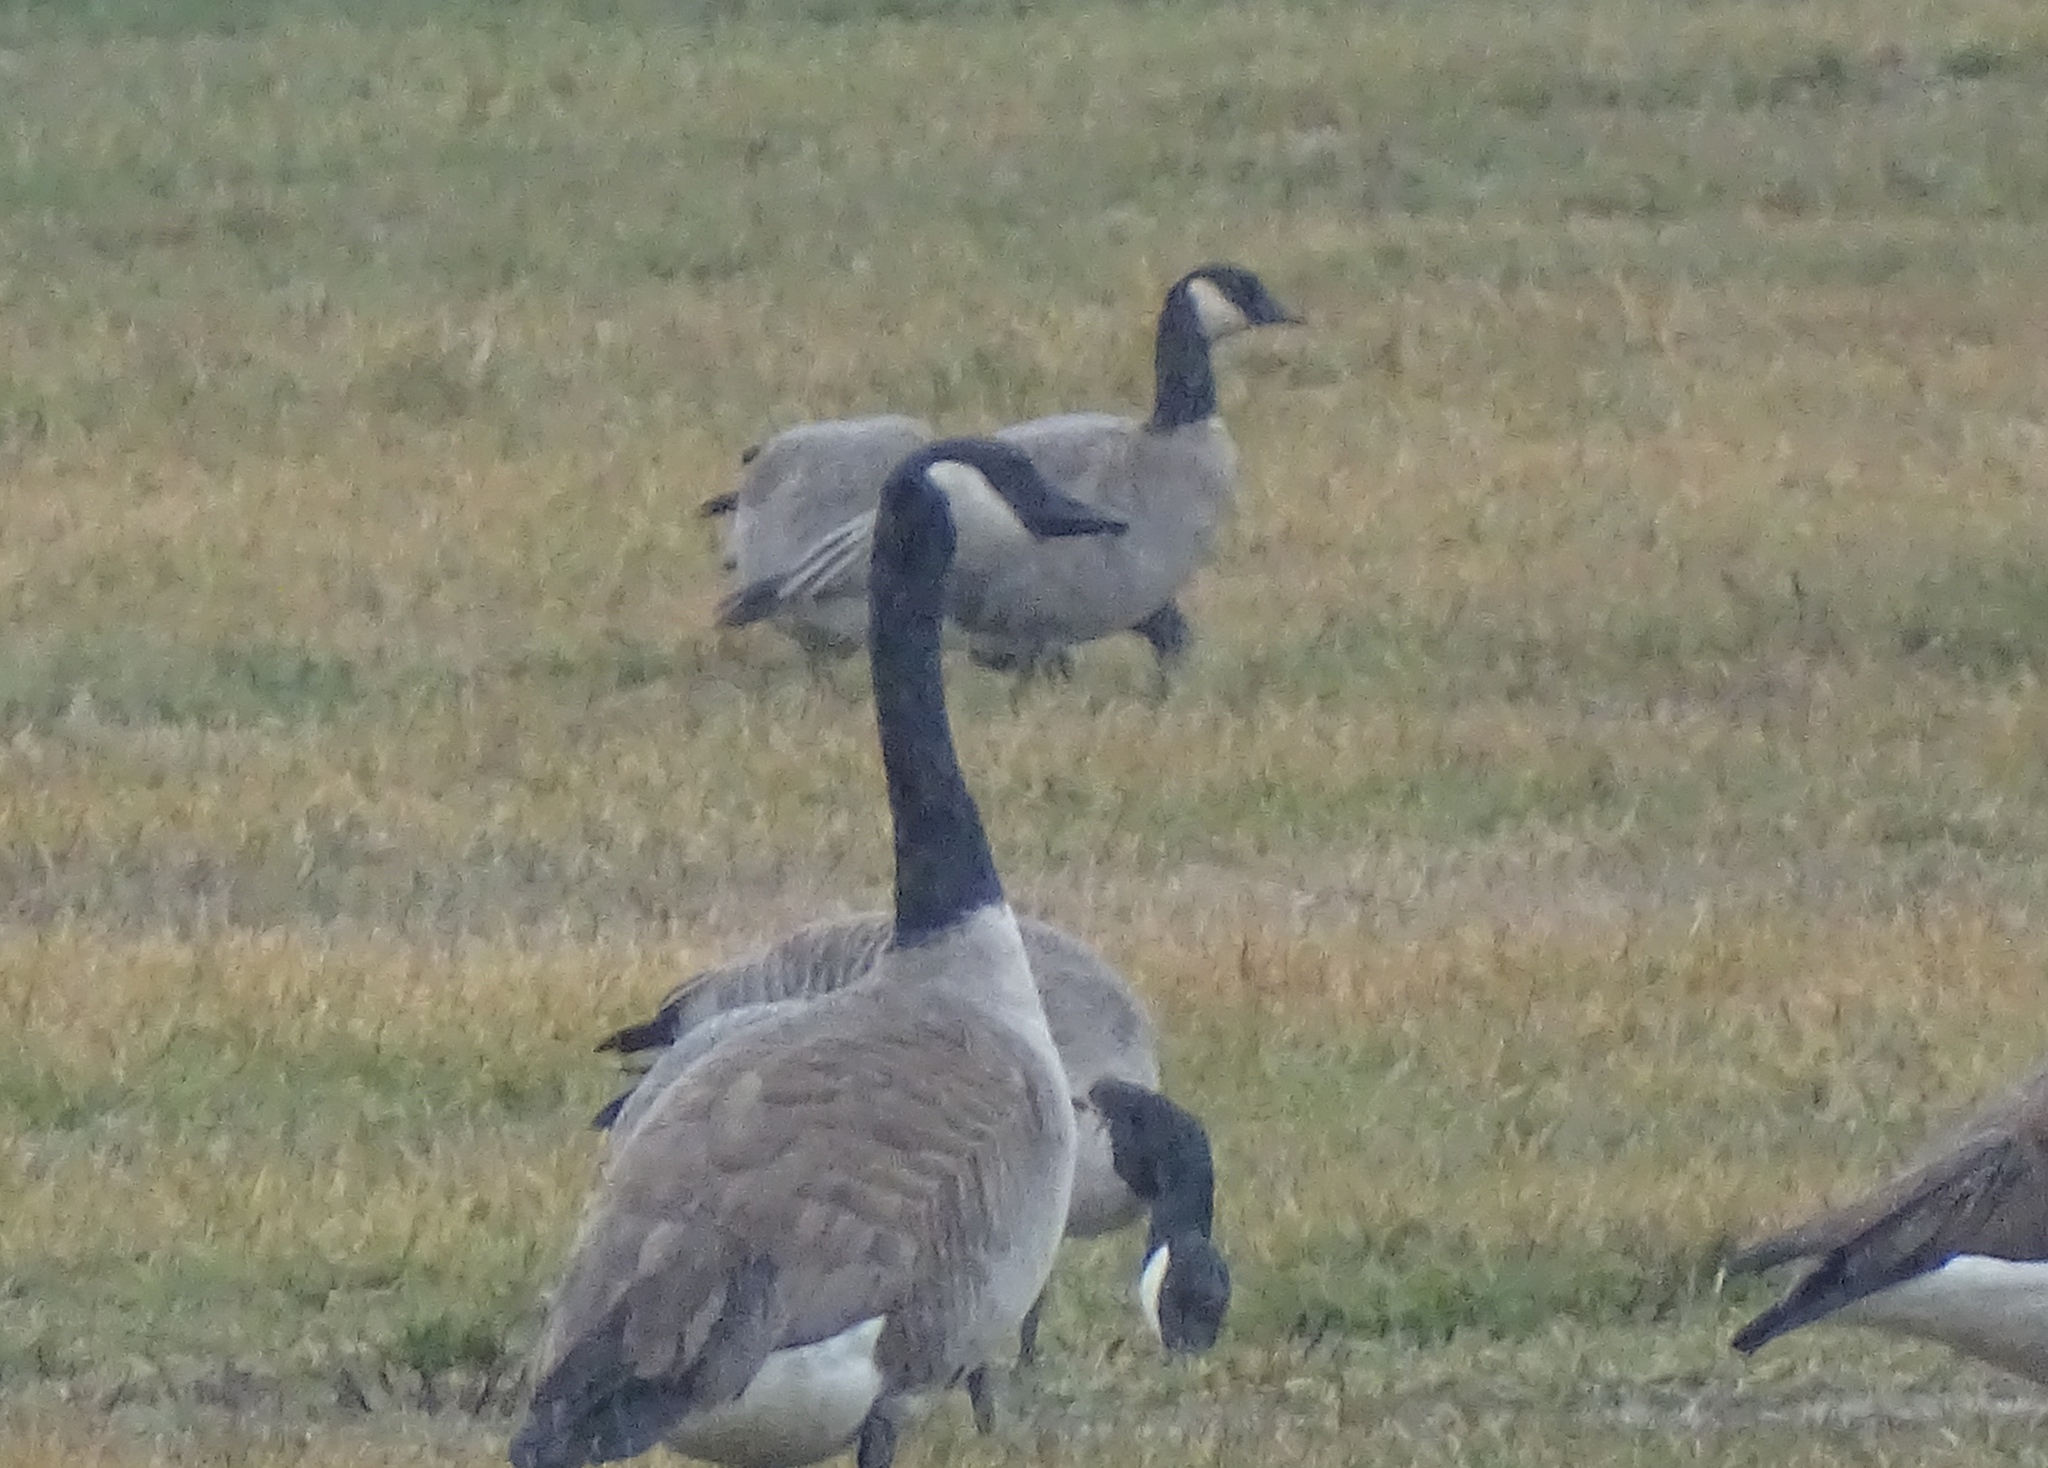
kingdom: Animalia
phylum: Chordata
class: Aves
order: Anseriformes
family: Anatidae
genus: Branta
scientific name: Branta hutchinsii
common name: Cackling goose
